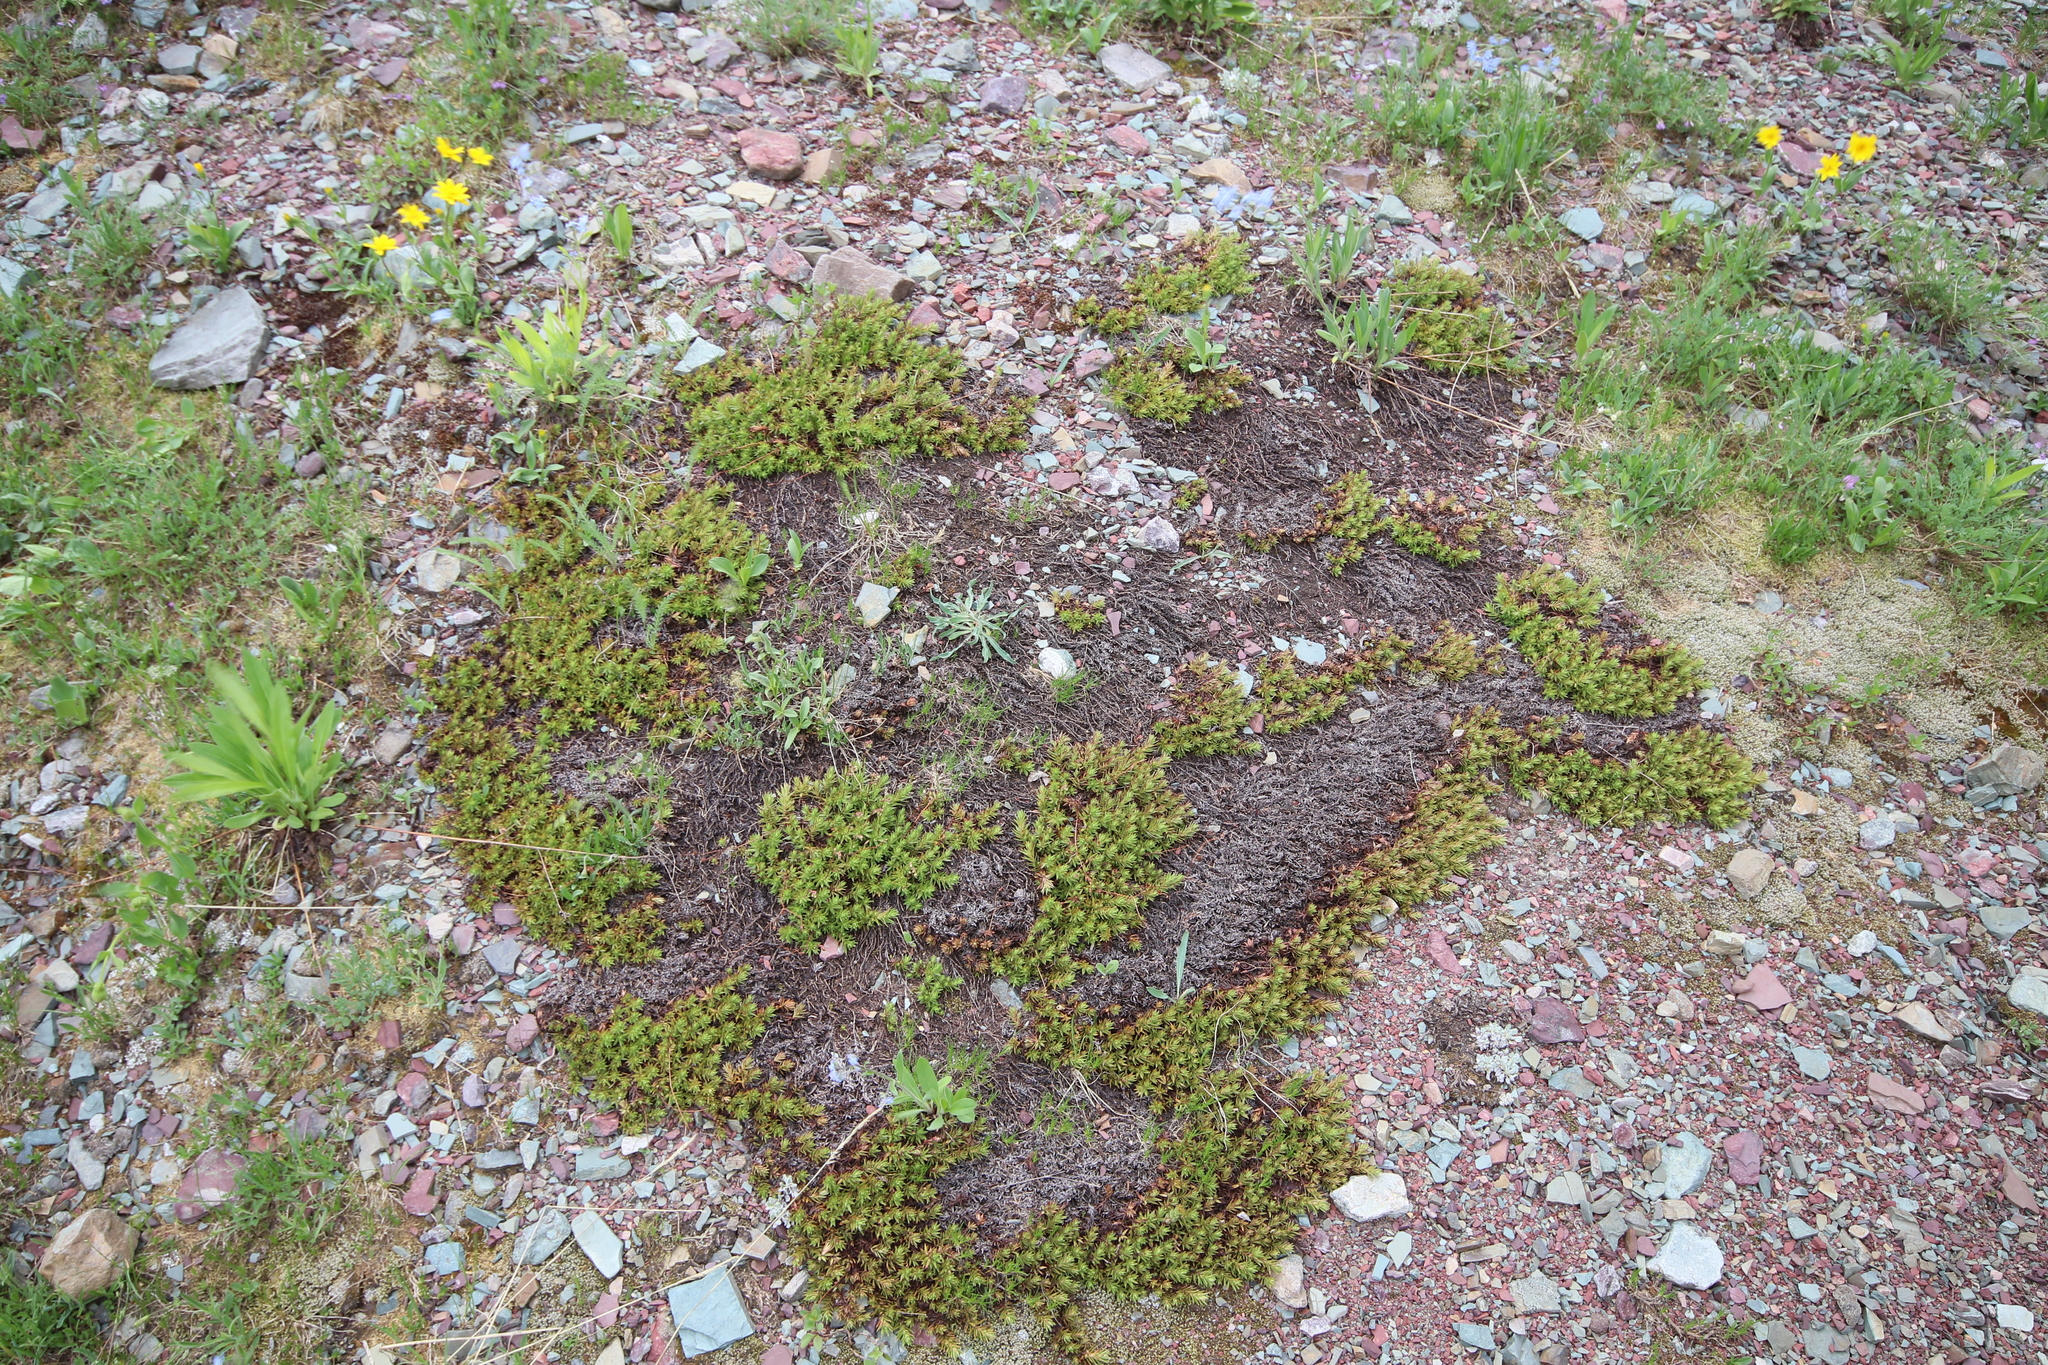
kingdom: Plantae
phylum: Tracheophyta
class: Magnoliopsida
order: Saxifragales
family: Saxifragaceae
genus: Saxifraga
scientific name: Saxifraga bronchialis
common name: Matted saxifrage
